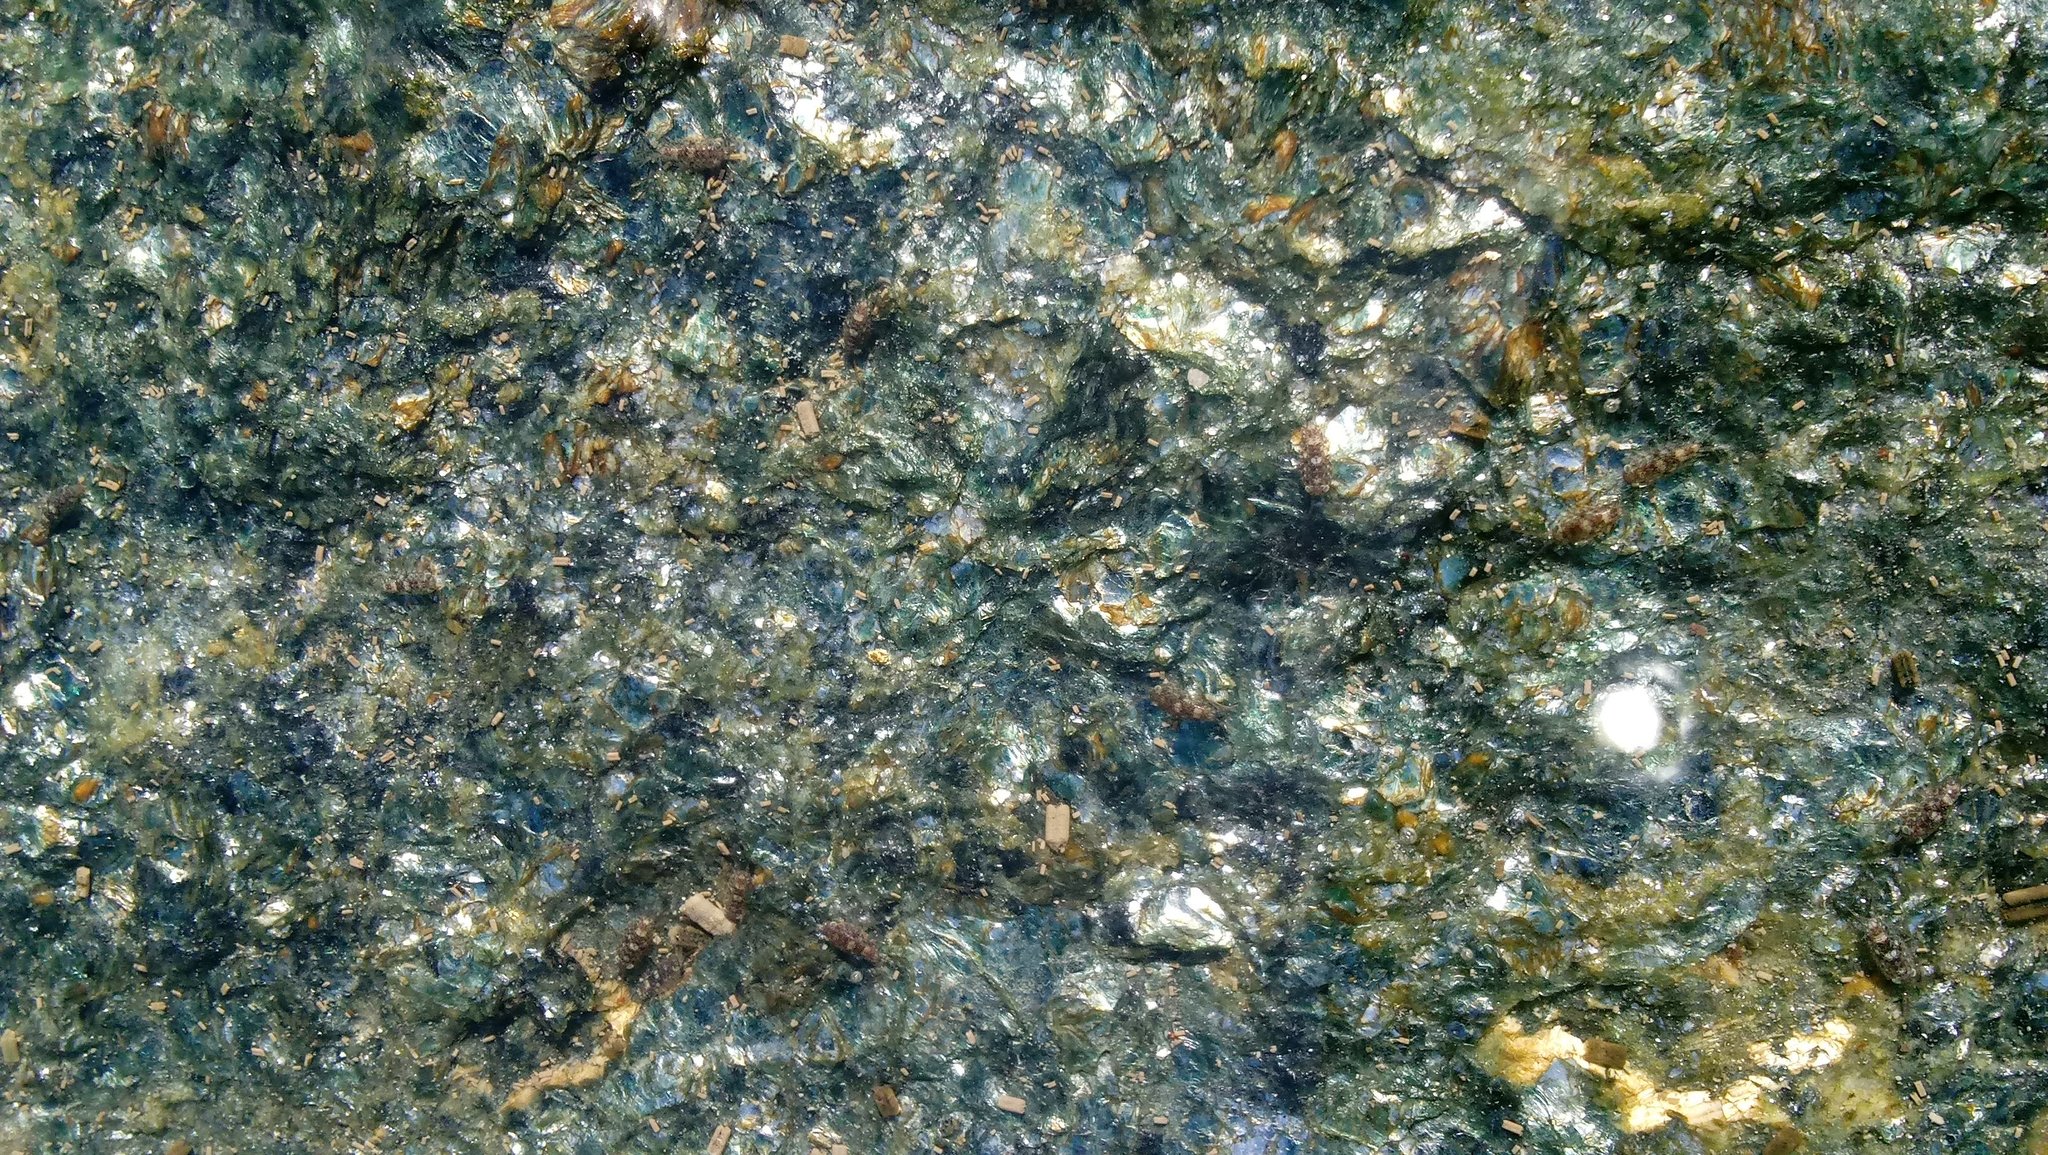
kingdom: Animalia
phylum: Arthropoda
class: Malacostraca
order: Isopoda
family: Ligiidae
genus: Ligia
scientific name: Ligia exotica
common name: Wharf roach
